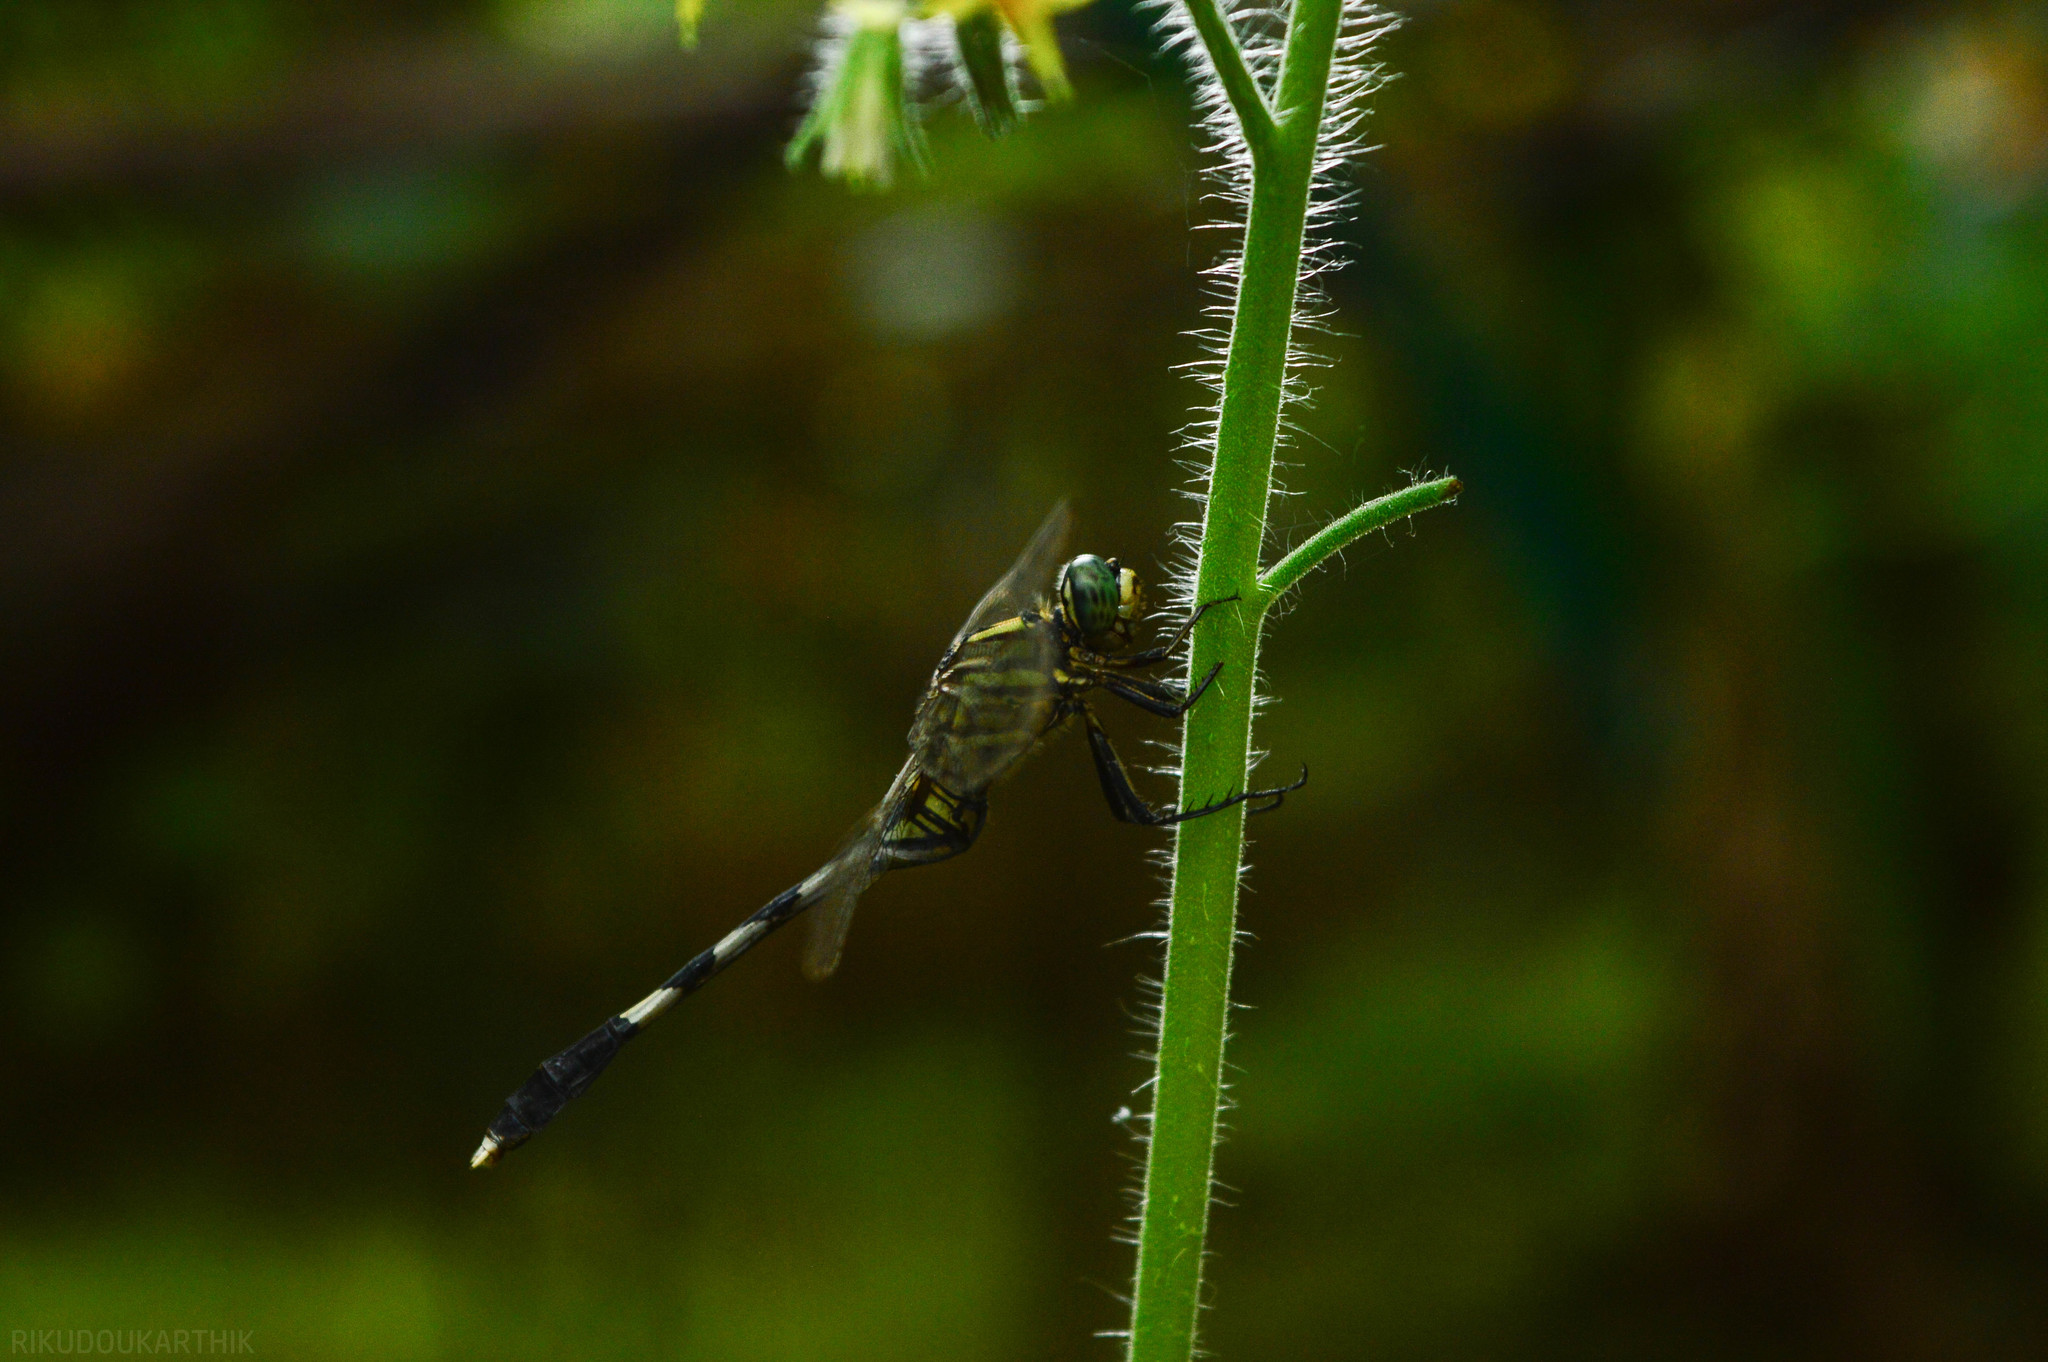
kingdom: Animalia
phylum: Arthropoda
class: Insecta
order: Odonata
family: Libellulidae
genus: Orthetrum
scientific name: Orthetrum sabina
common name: Slender skimmer
